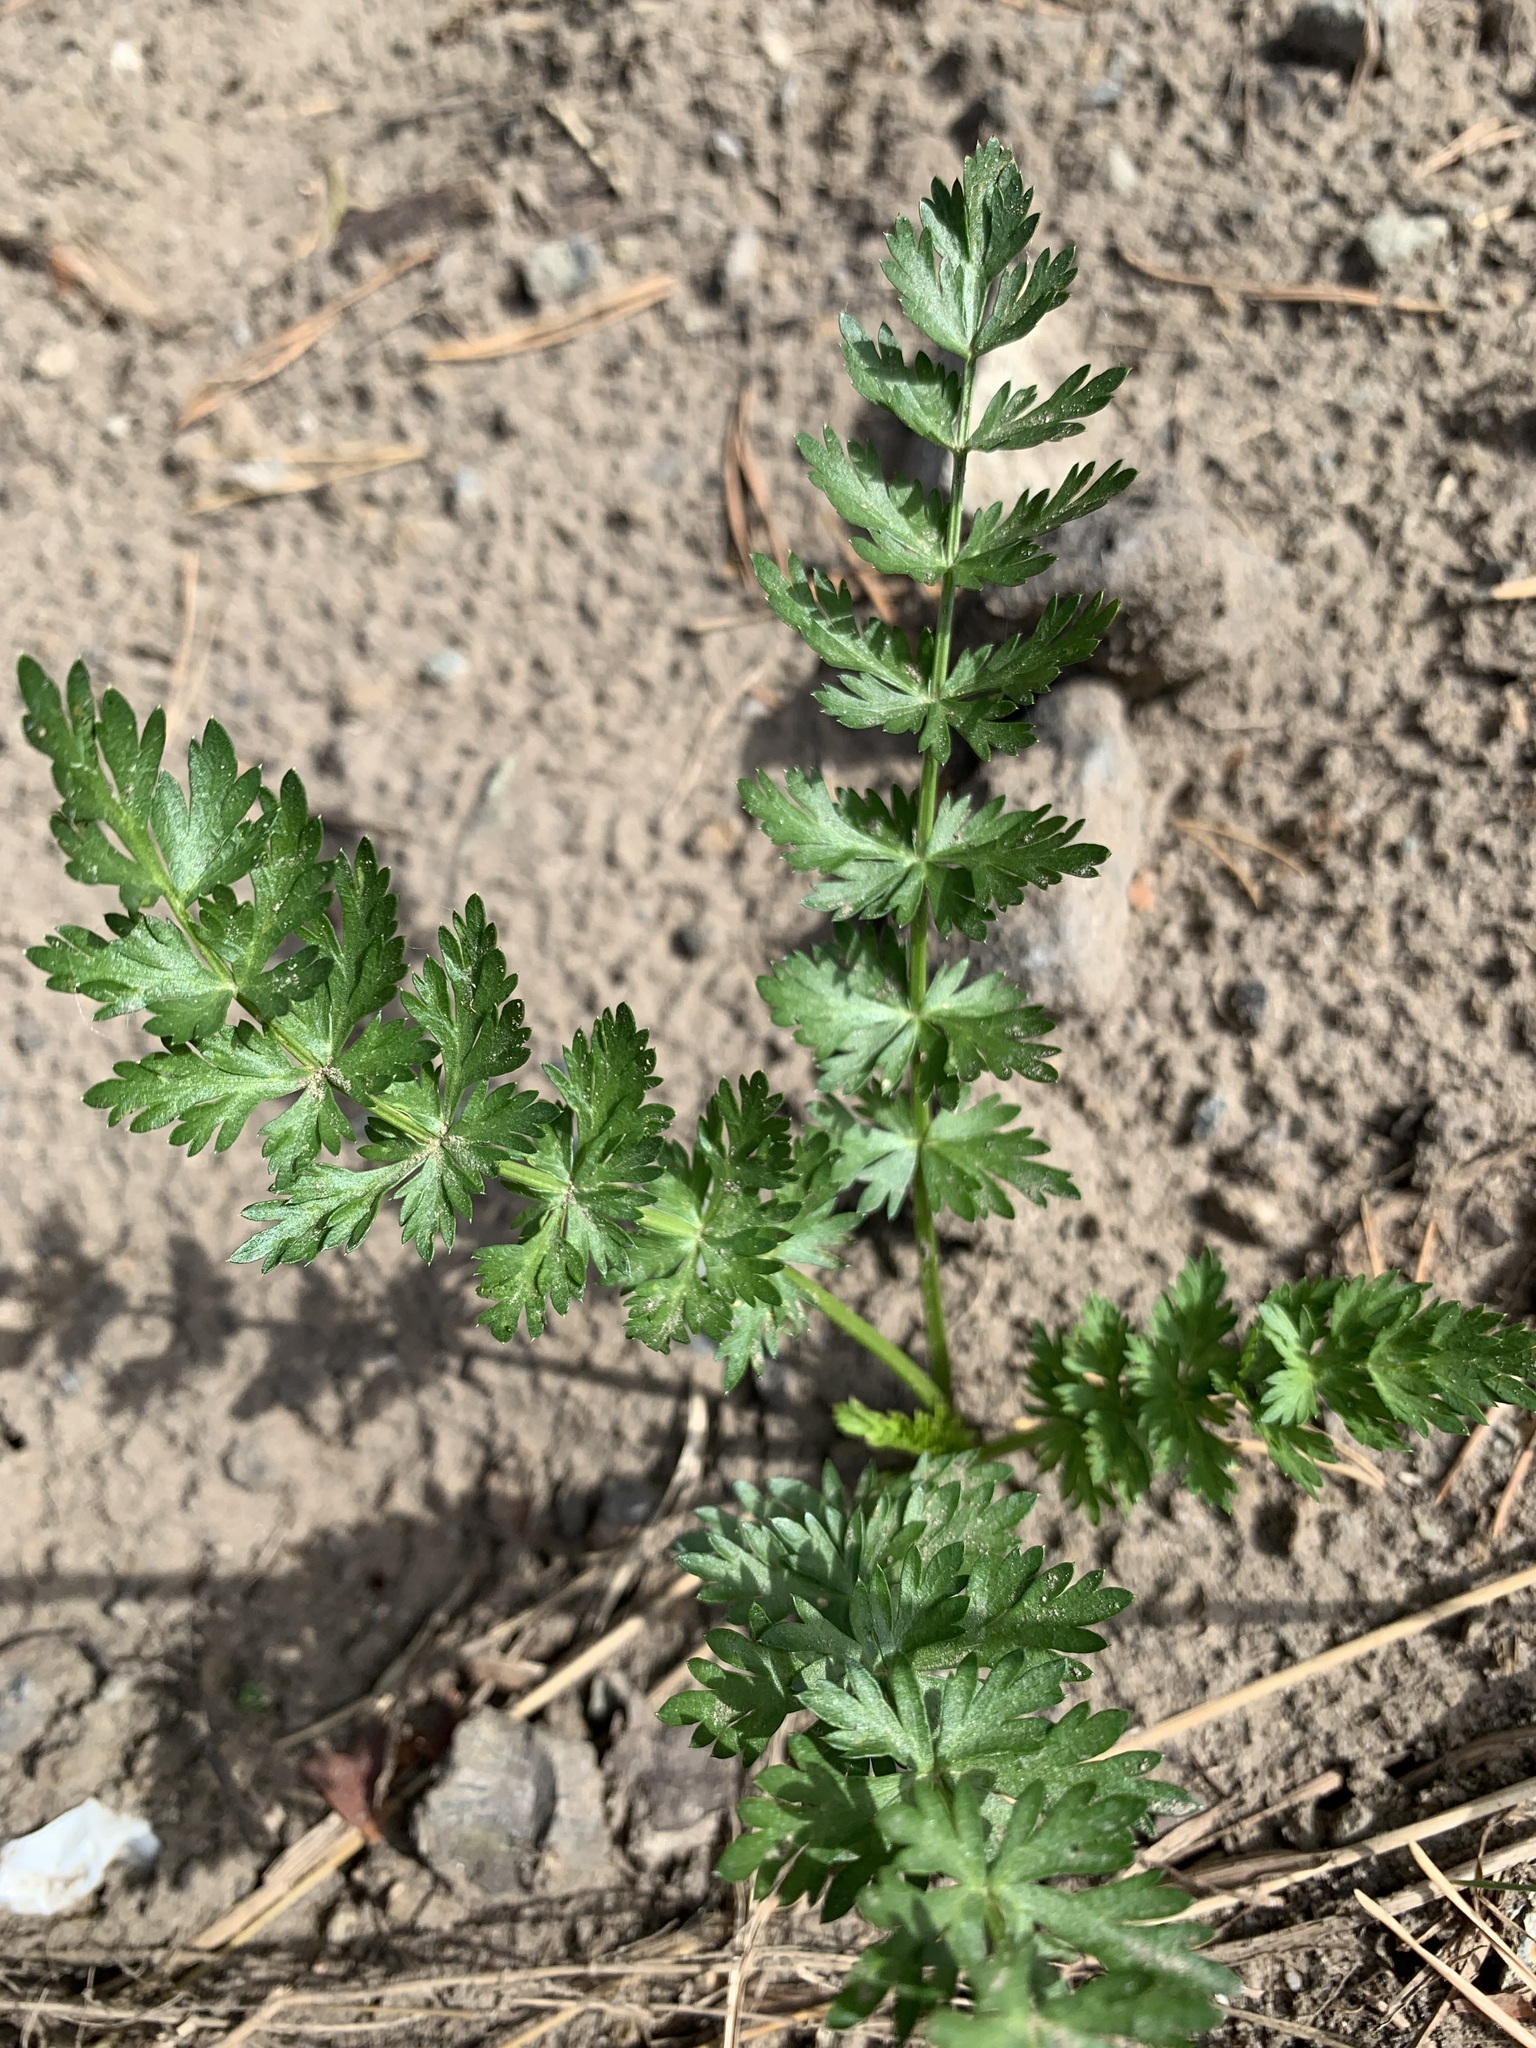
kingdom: Plantae
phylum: Tracheophyta
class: Magnoliopsida
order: Apiales
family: Apiaceae
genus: Carum
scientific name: Carum carvi
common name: Caraway
